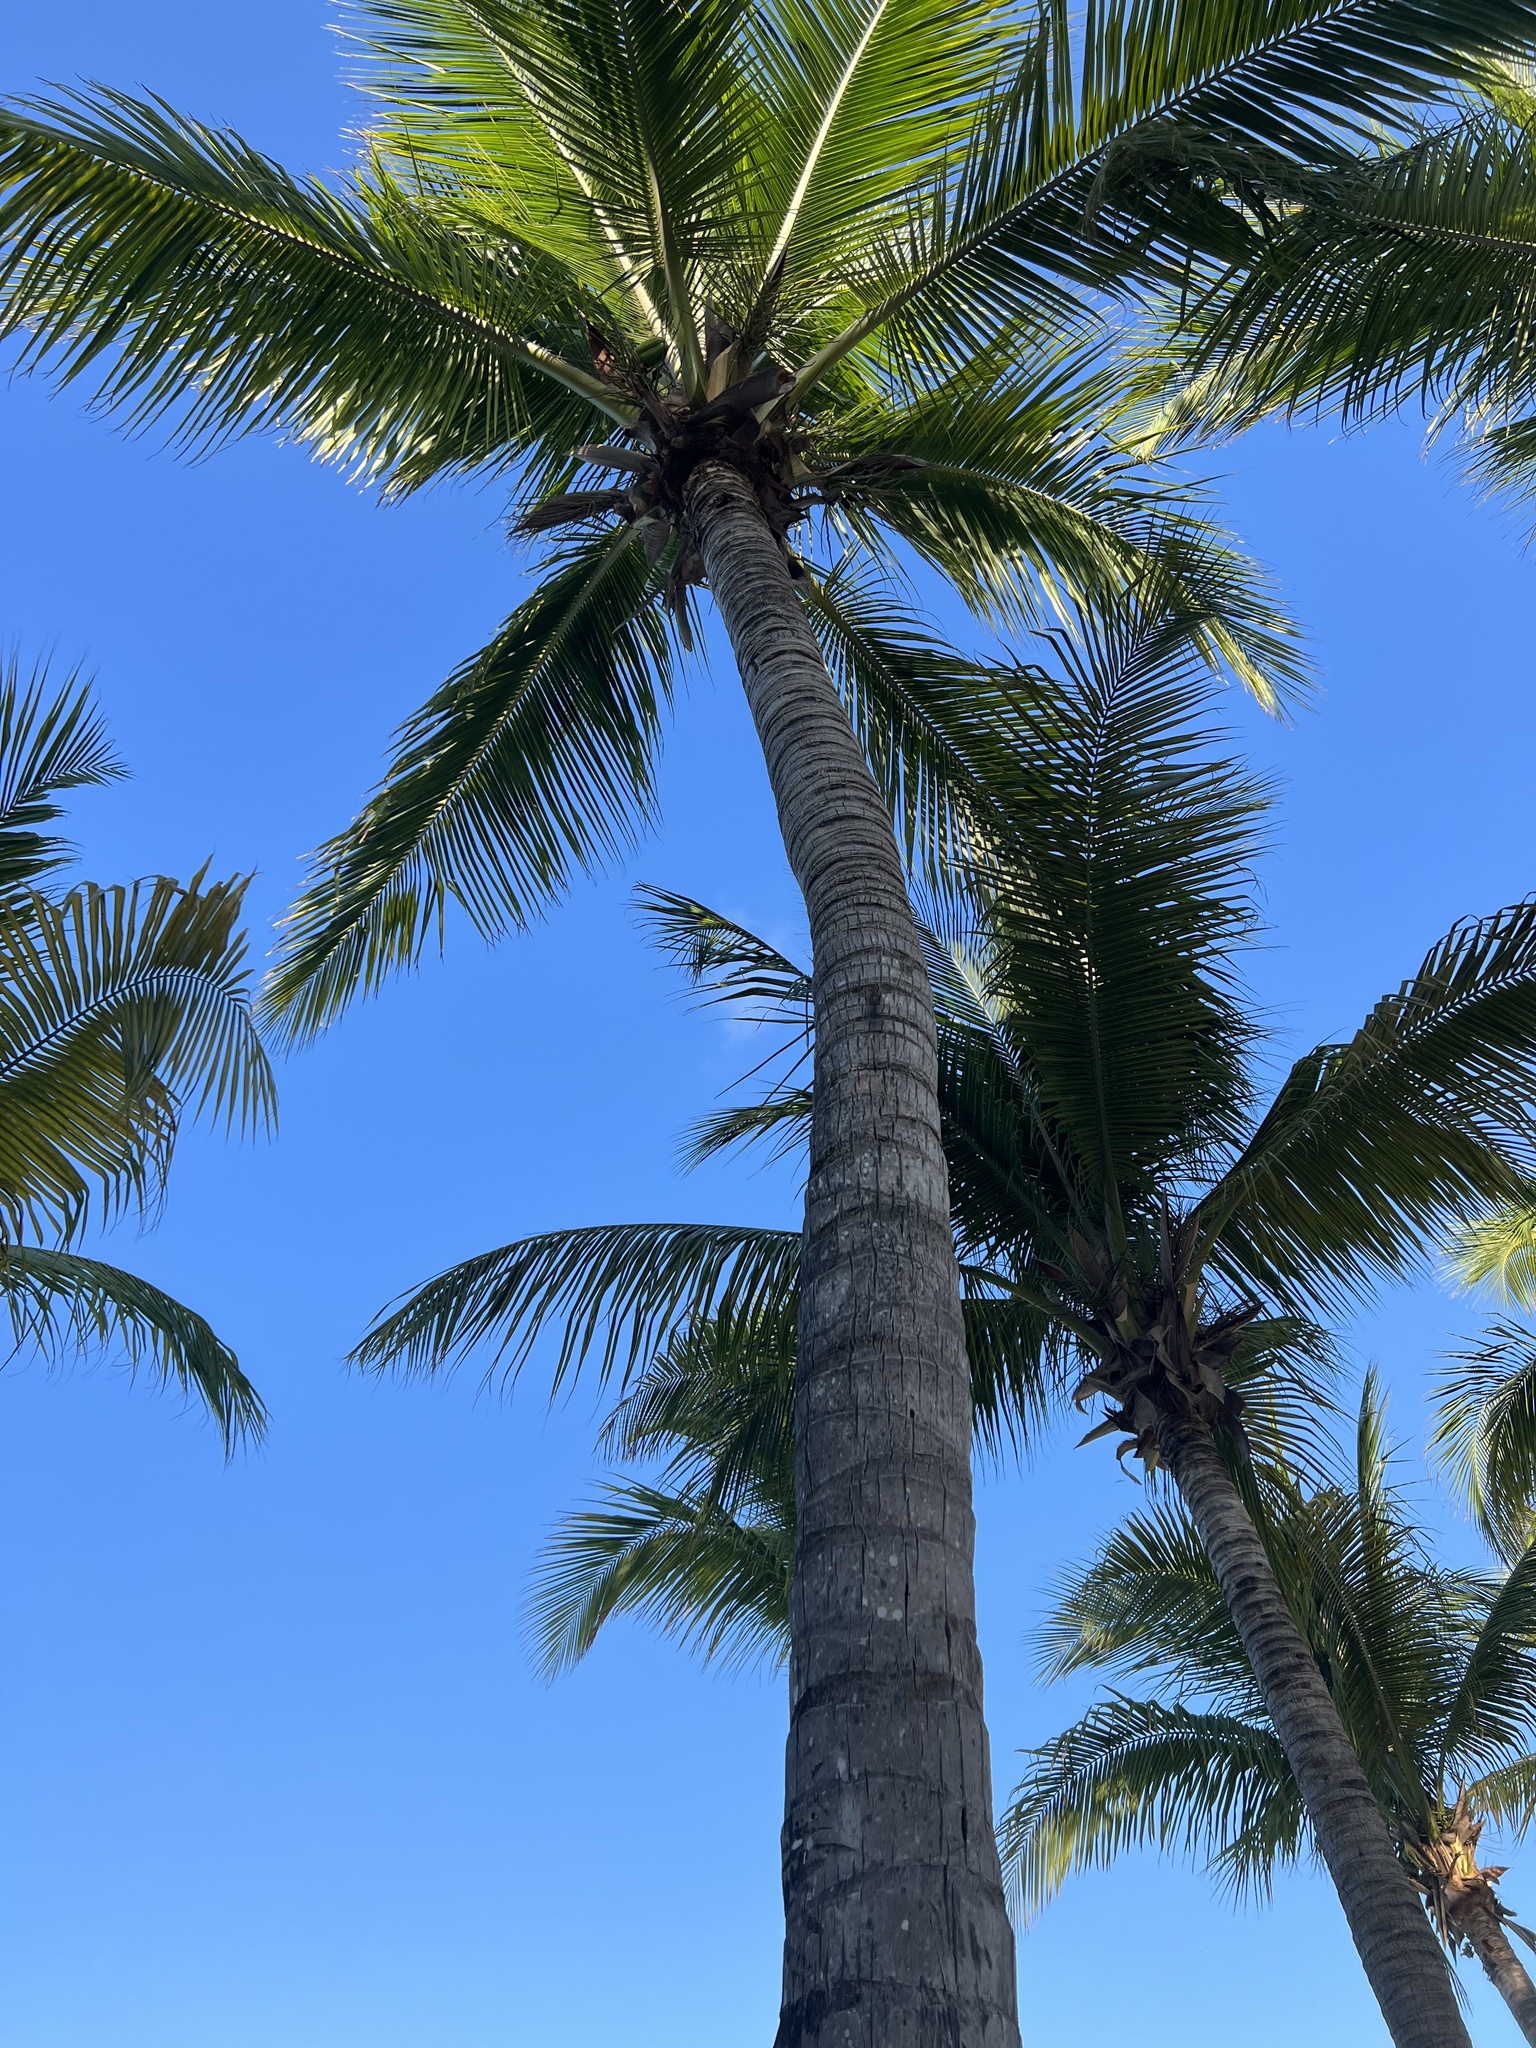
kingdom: Plantae
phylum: Tracheophyta
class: Liliopsida
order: Arecales
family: Arecaceae
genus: Cocos
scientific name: Cocos nucifera
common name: Coconut palm
